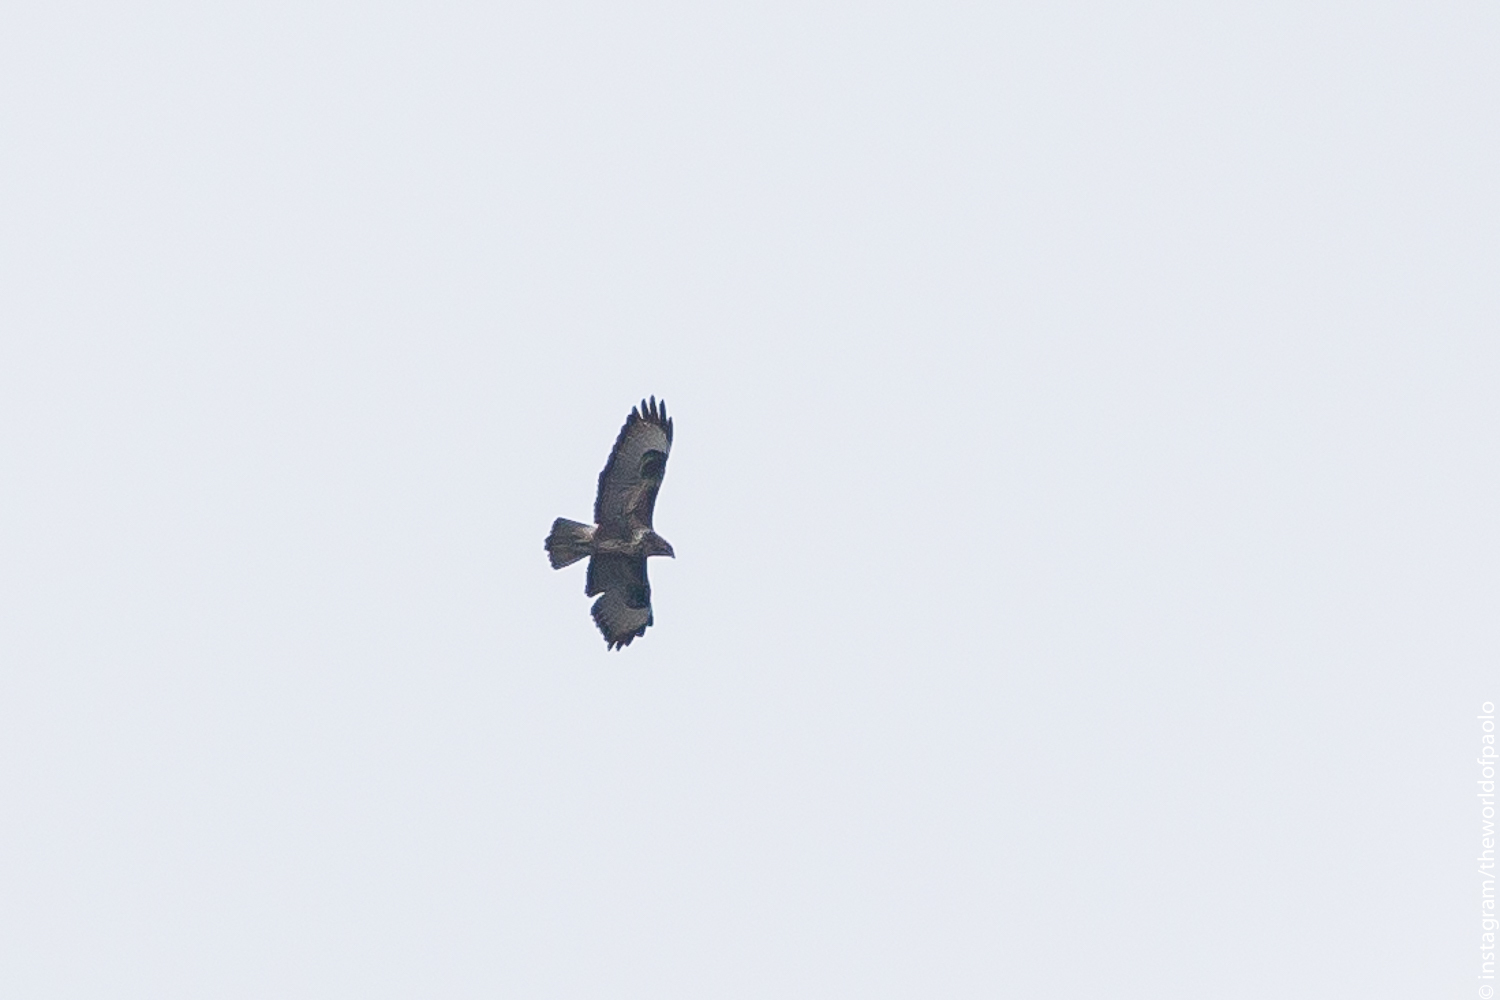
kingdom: Animalia
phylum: Chordata
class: Aves
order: Accipitriformes
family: Accipitridae
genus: Buteo
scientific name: Buteo buteo
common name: Common buzzard
